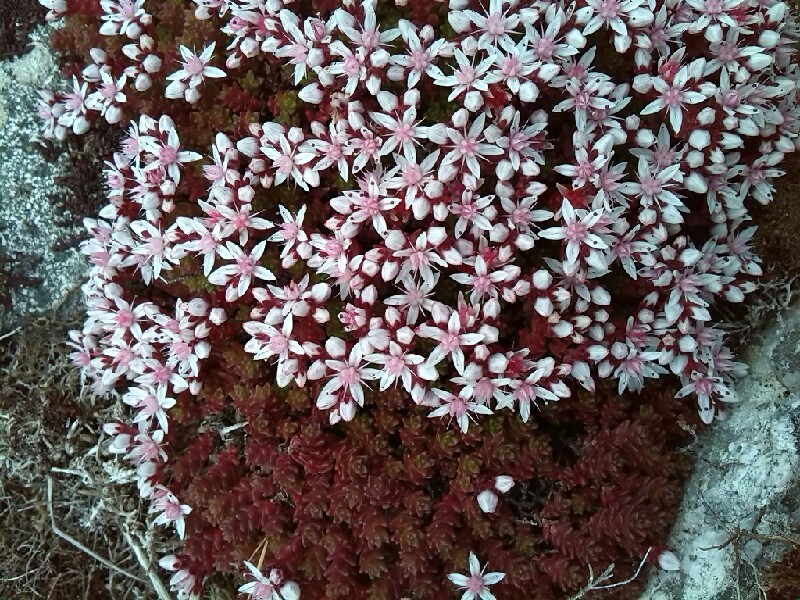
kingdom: Plantae
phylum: Tracheophyta
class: Magnoliopsida
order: Saxifragales
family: Crassulaceae
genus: Sedum
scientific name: Sedum album
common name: White stonecrop
